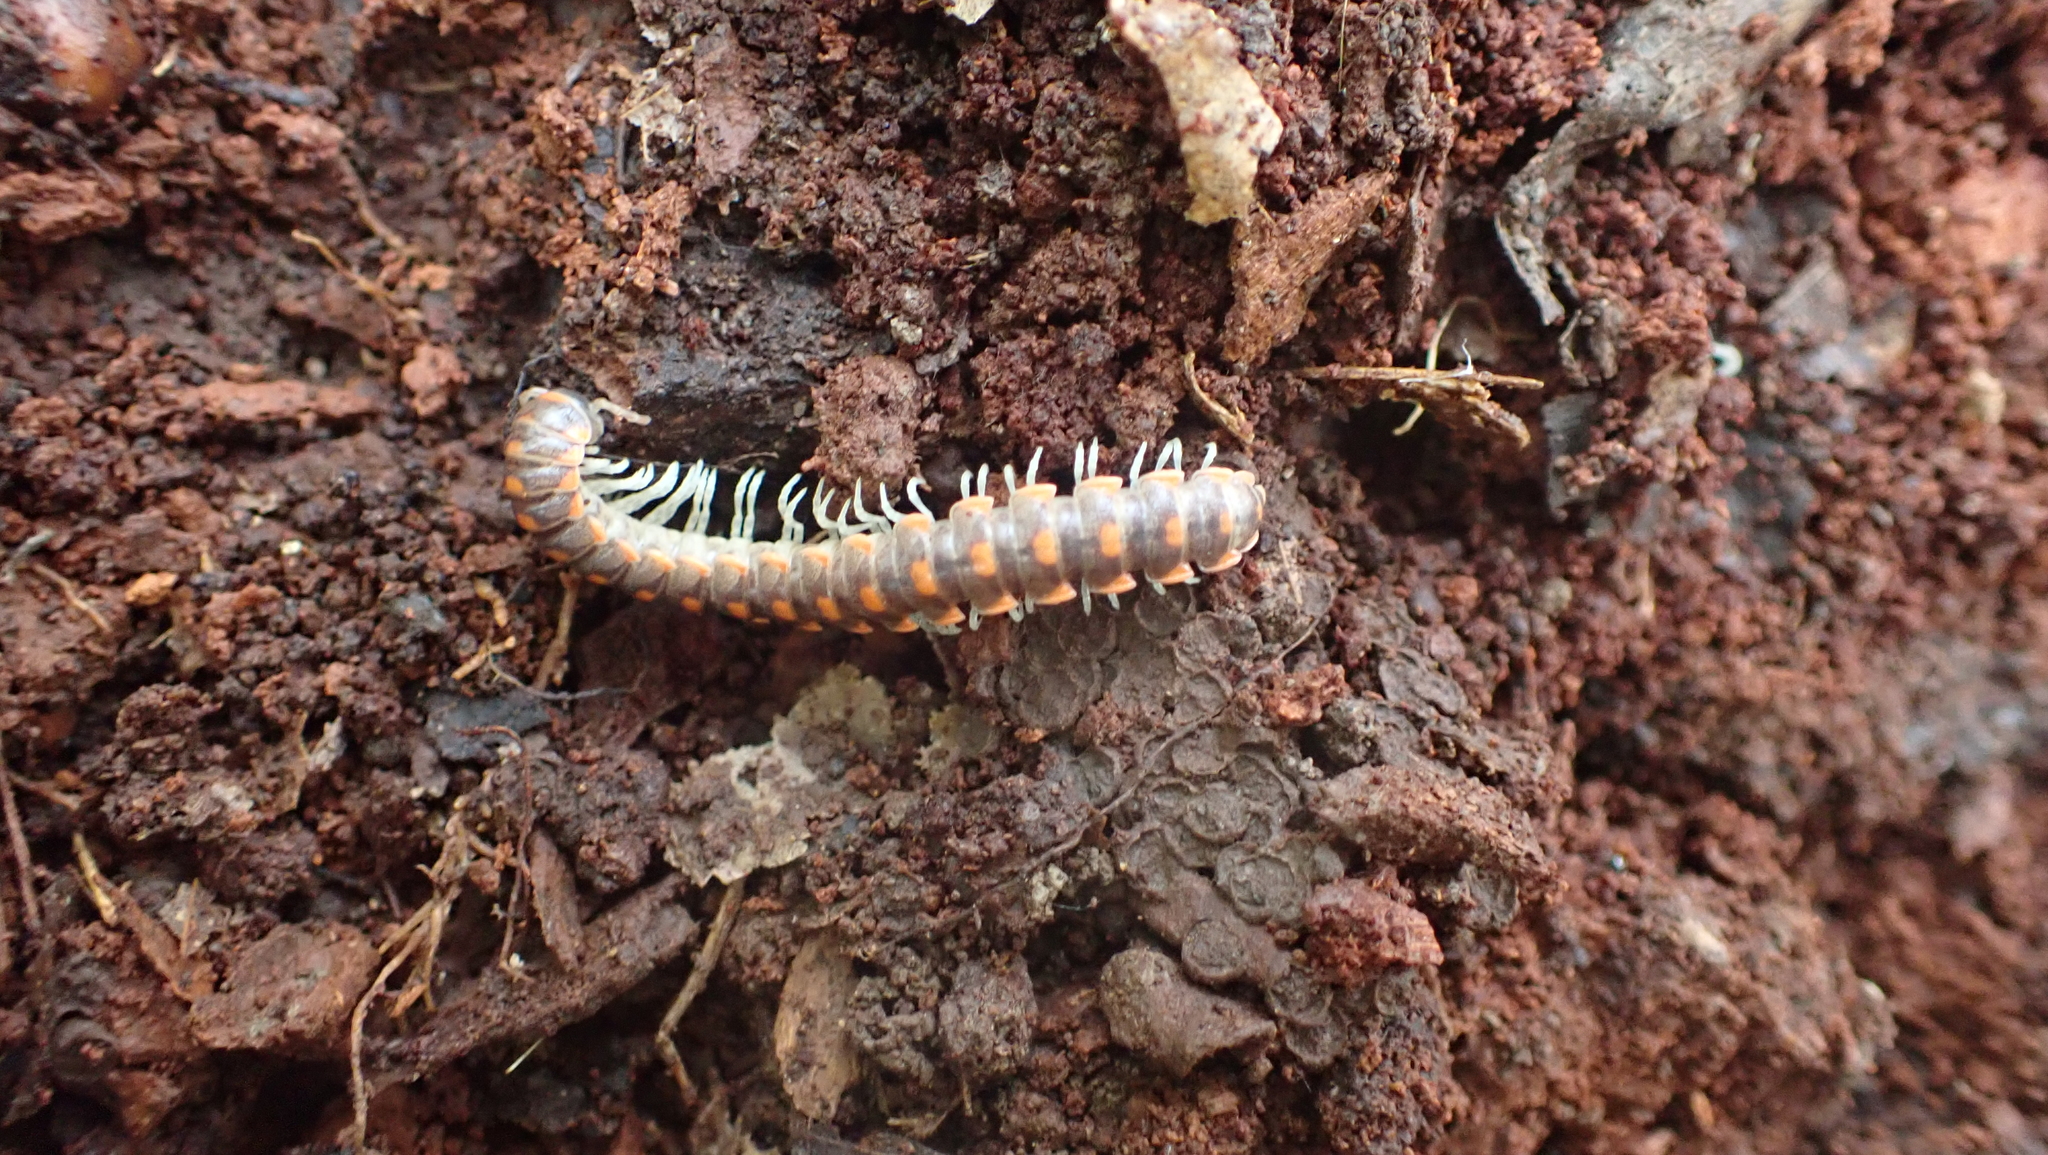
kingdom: Animalia
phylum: Arthropoda
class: Diplopoda
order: Polydesmida
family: Xystodesmidae
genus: Euryurus
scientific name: Euryurus leachii
